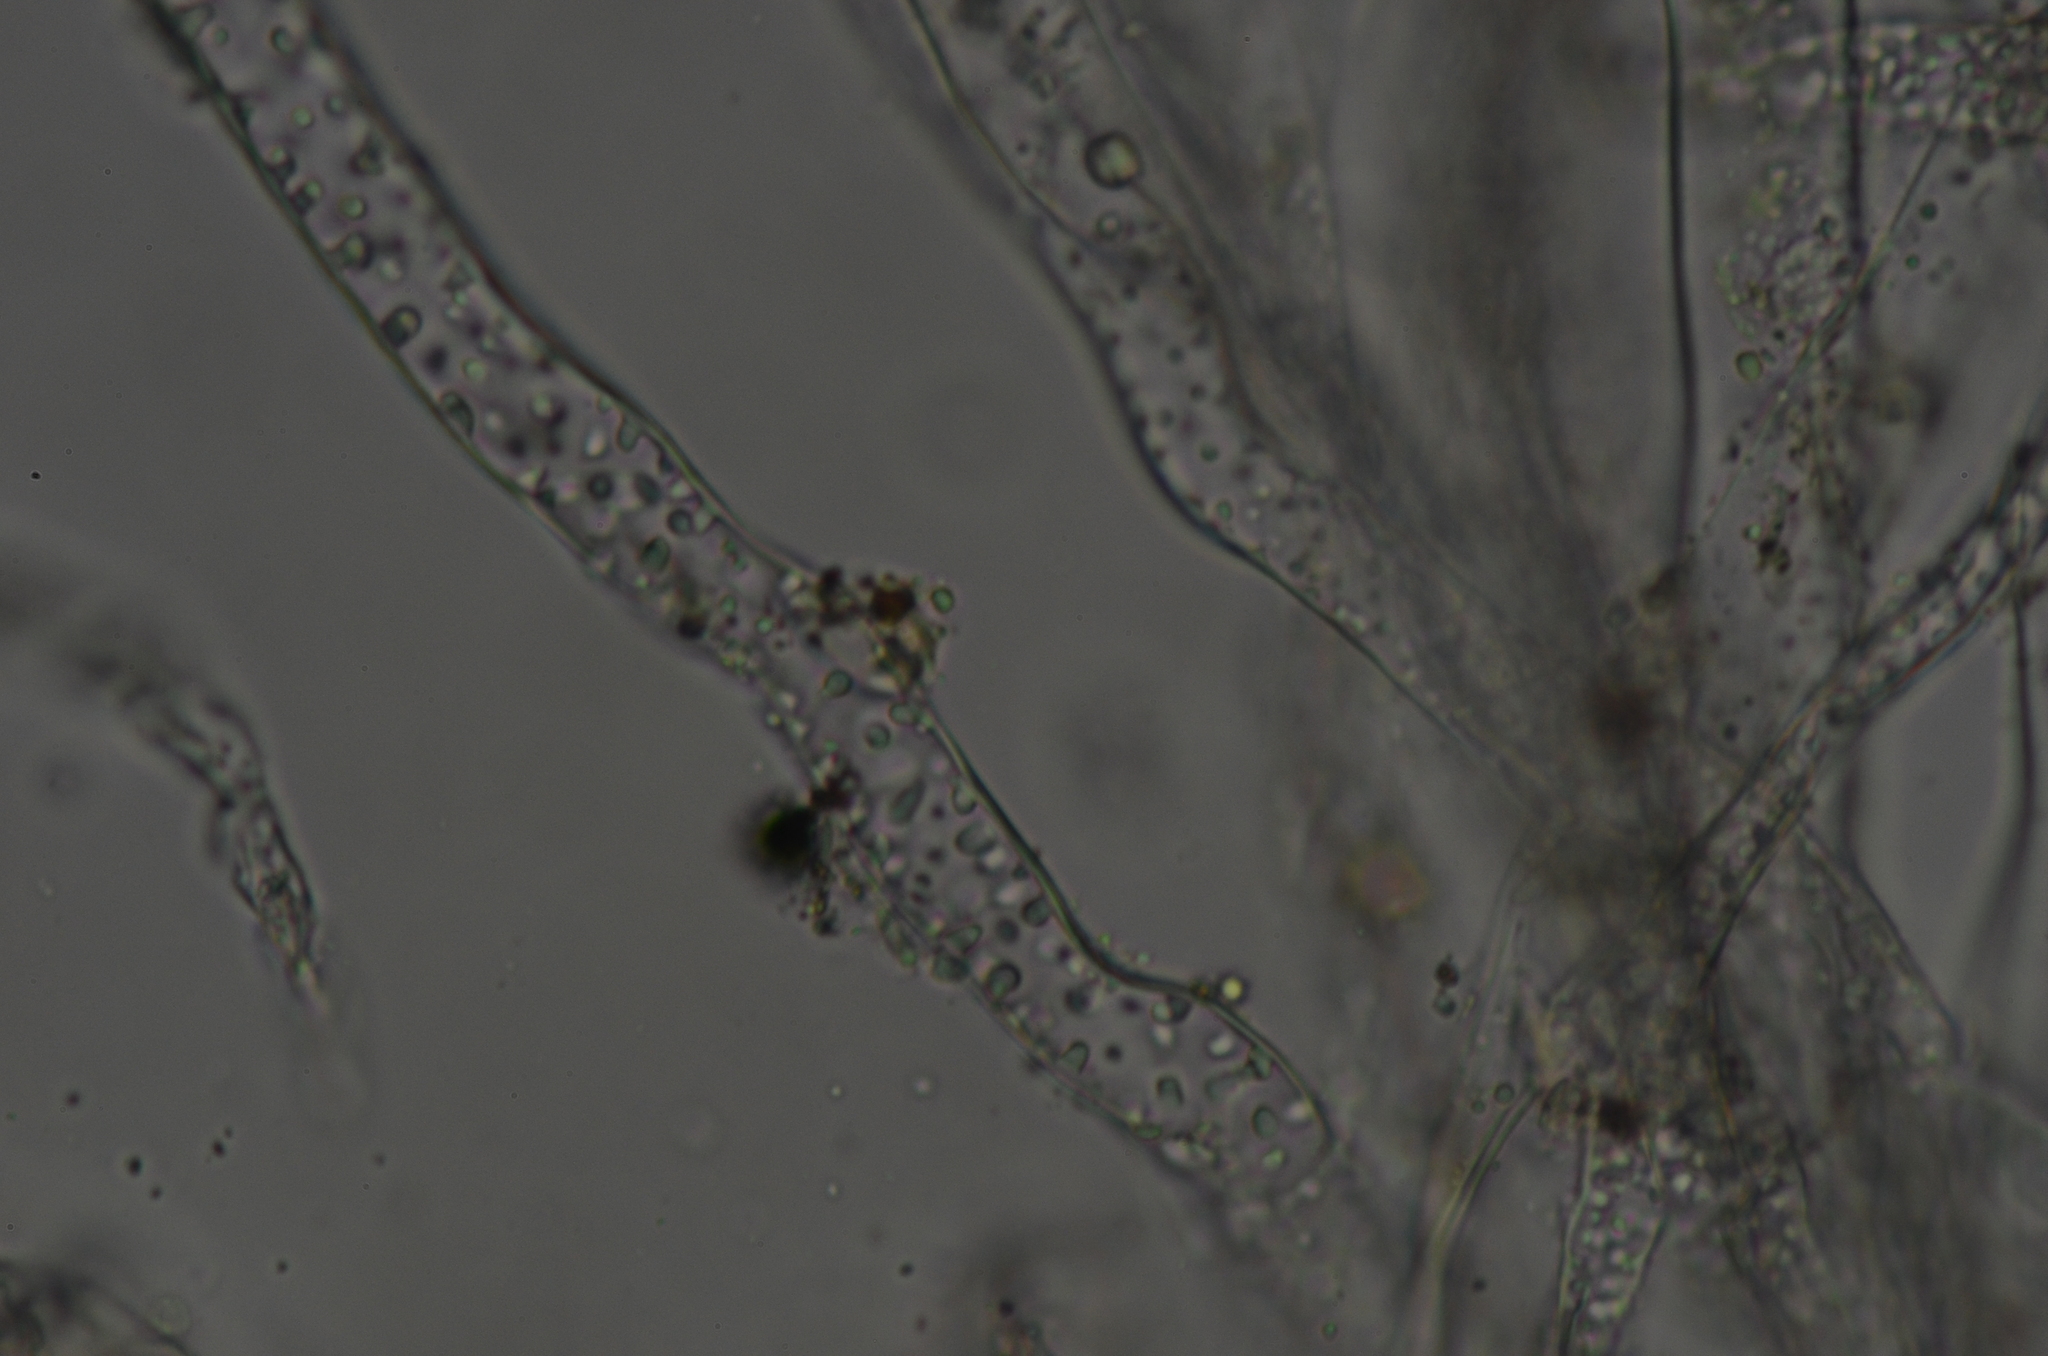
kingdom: Plantae
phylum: Marchantiophyta
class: Marchantiopsida
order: Marchantiales
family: Ricciaceae
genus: Riccia
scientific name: Riccia sorocarpa
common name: Common crystalwort
